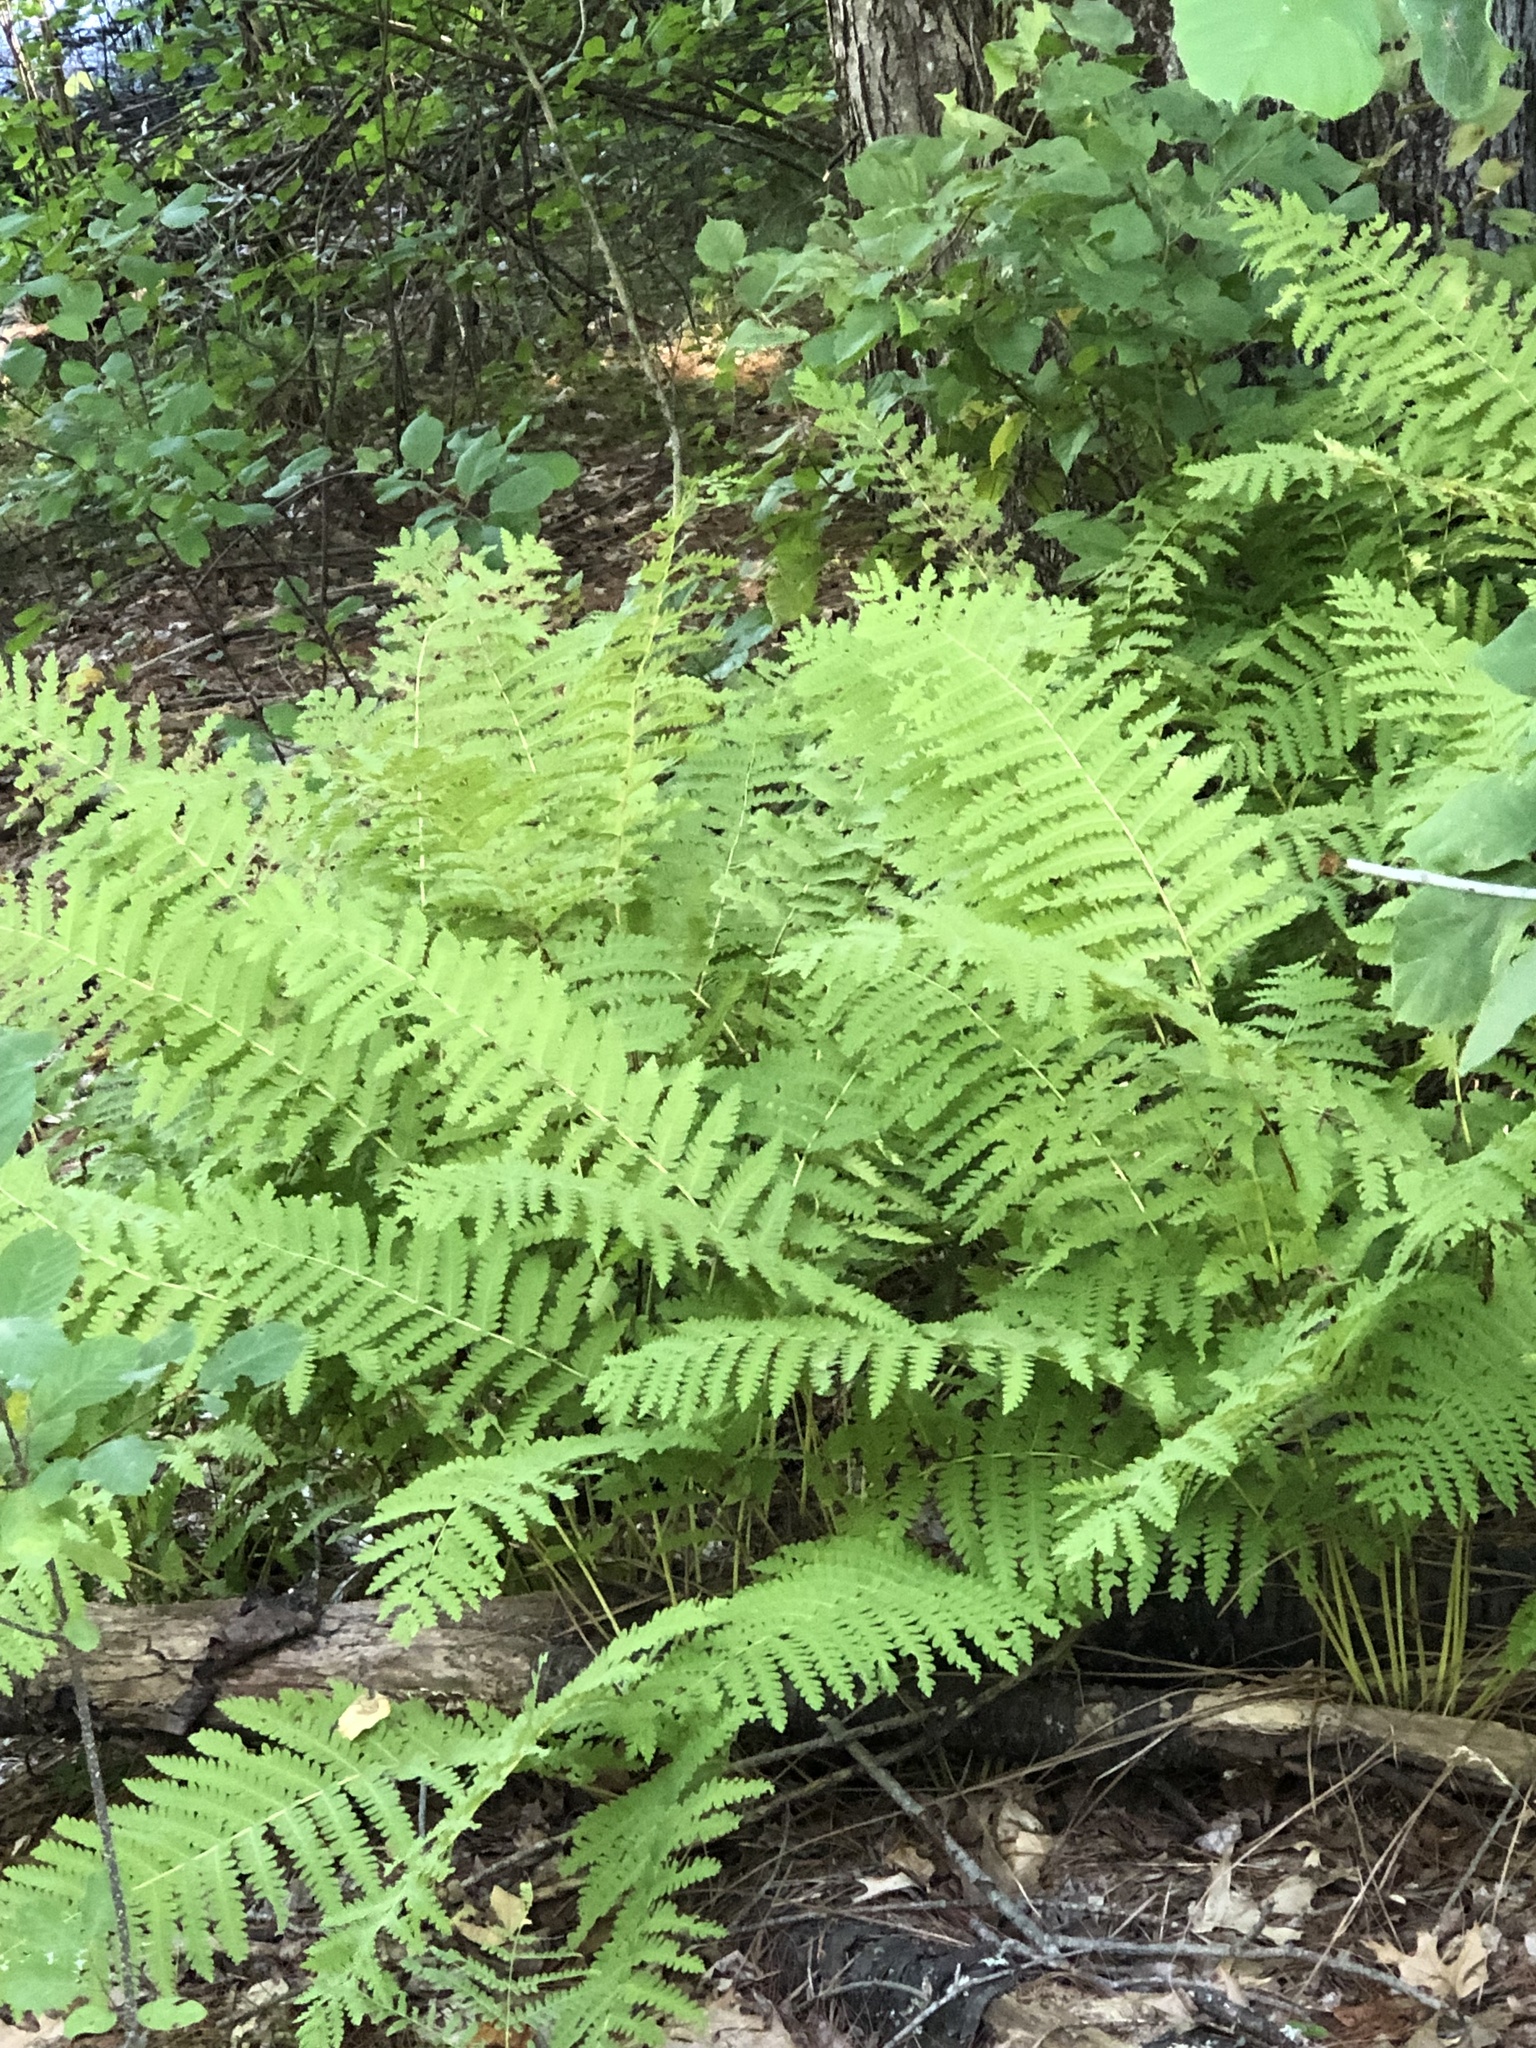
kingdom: Plantae
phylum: Tracheophyta
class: Polypodiopsida
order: Osmundales
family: Osmundaceae
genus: Claytosmunda
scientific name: Claytosmunda claytoniana
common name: Clayton's fern
